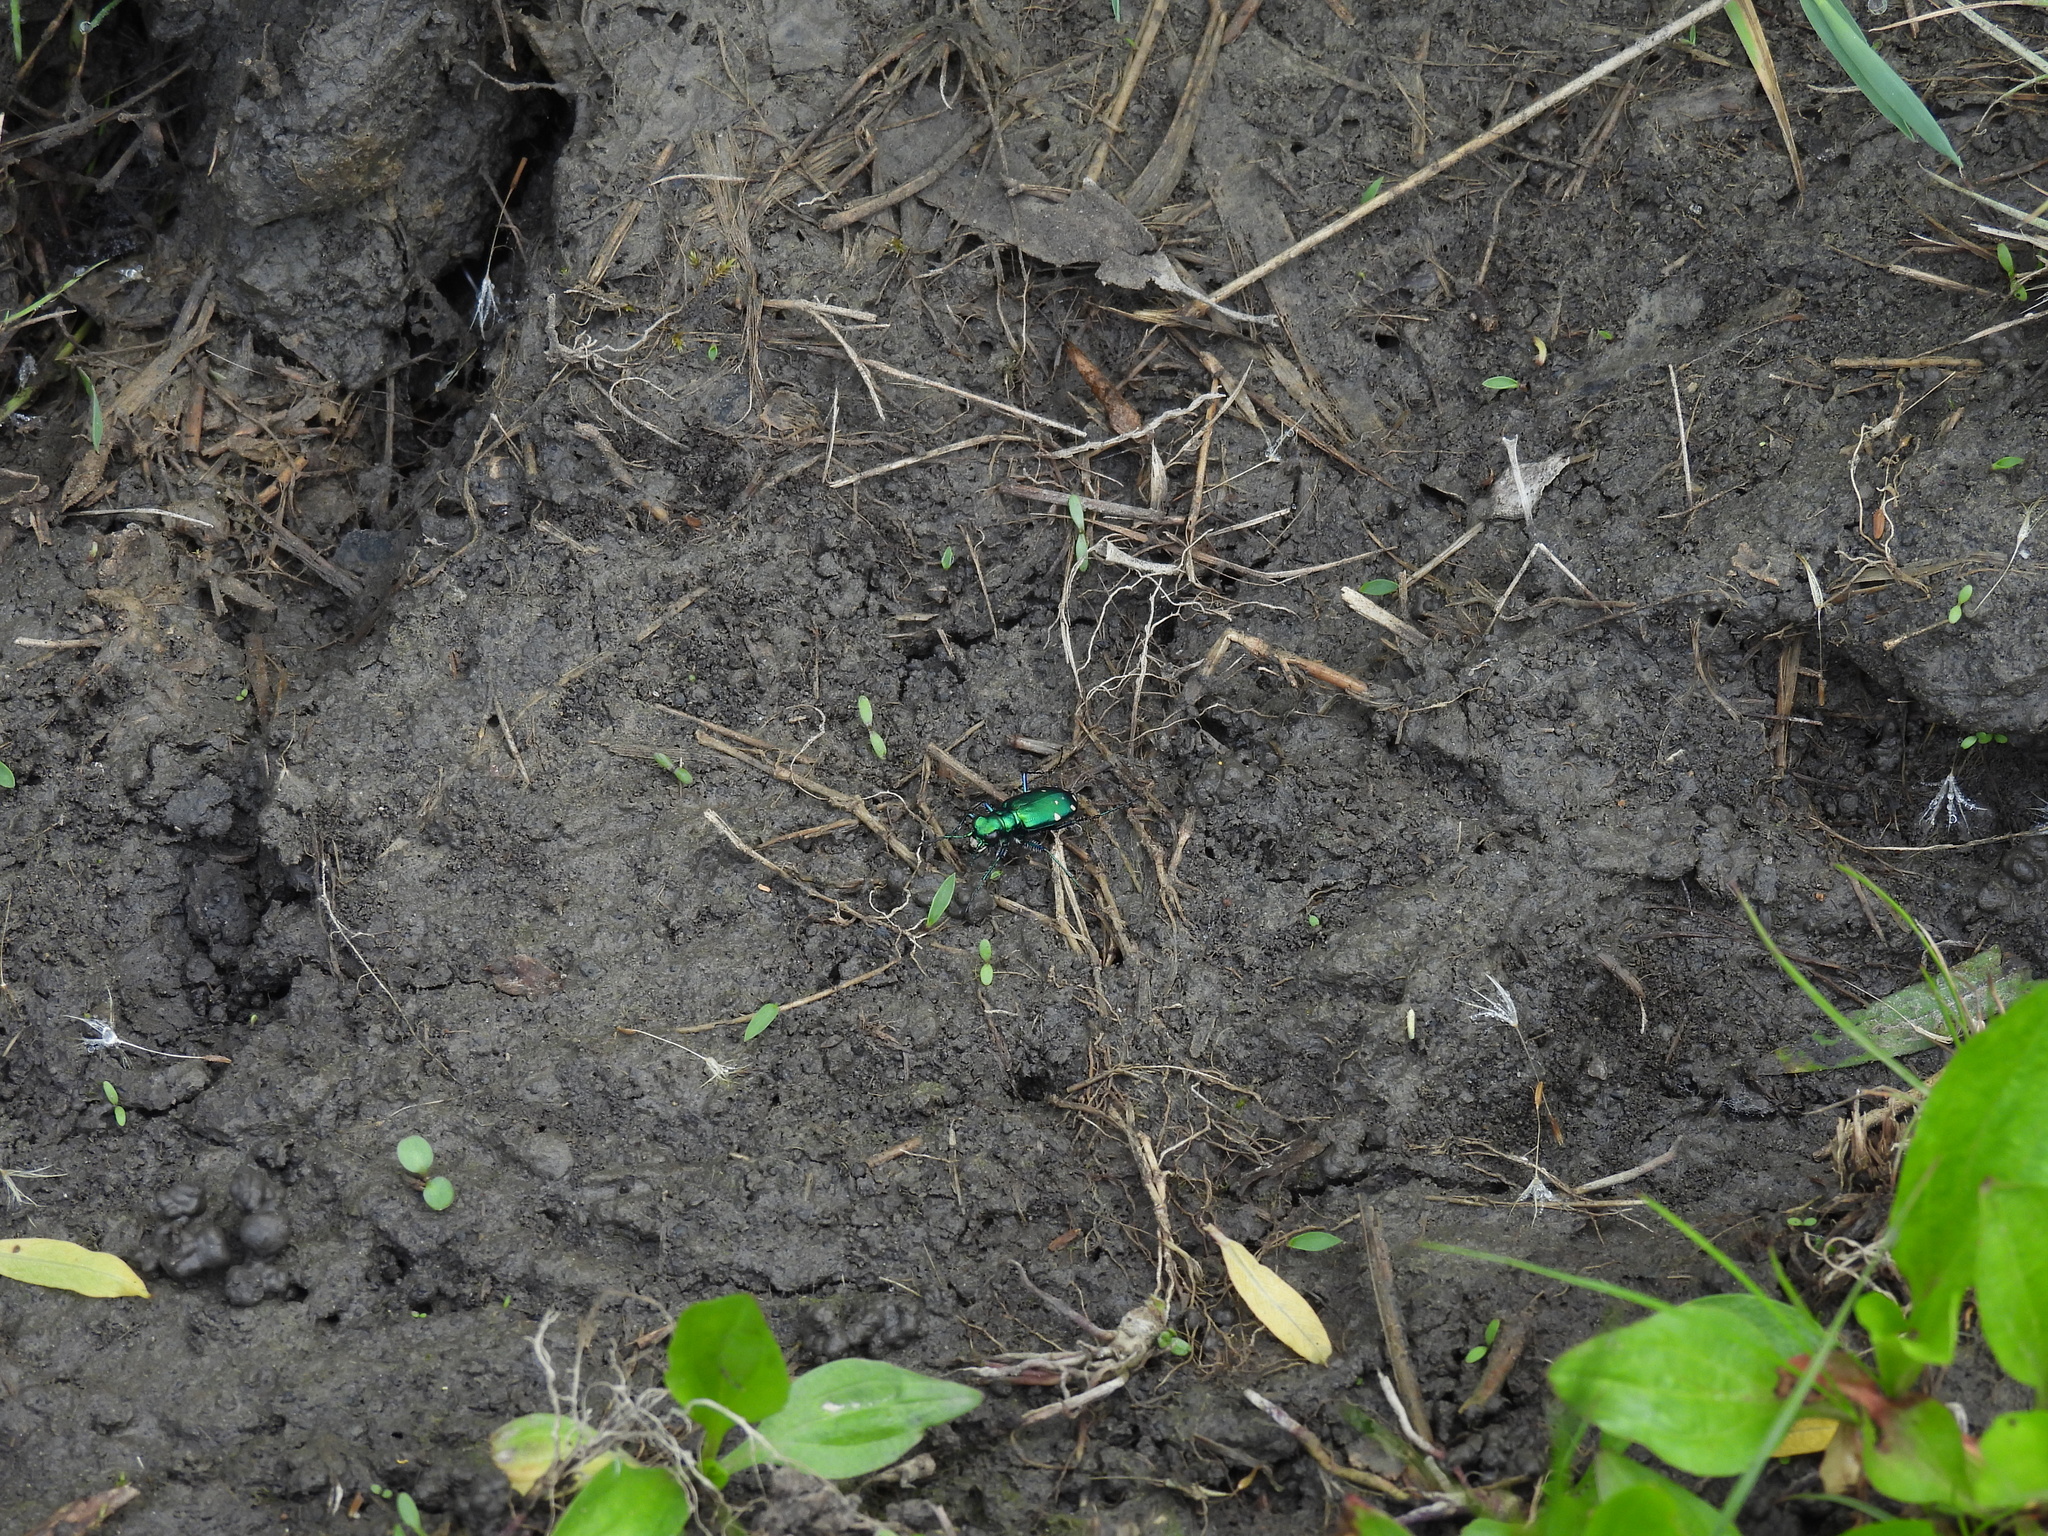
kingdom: Animalia
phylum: Arthropoda
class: Insecta
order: Coleoptera
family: Carabidae
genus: Cicindela
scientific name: Cicindela sexguttata
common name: Six-spotted tiger beetle
